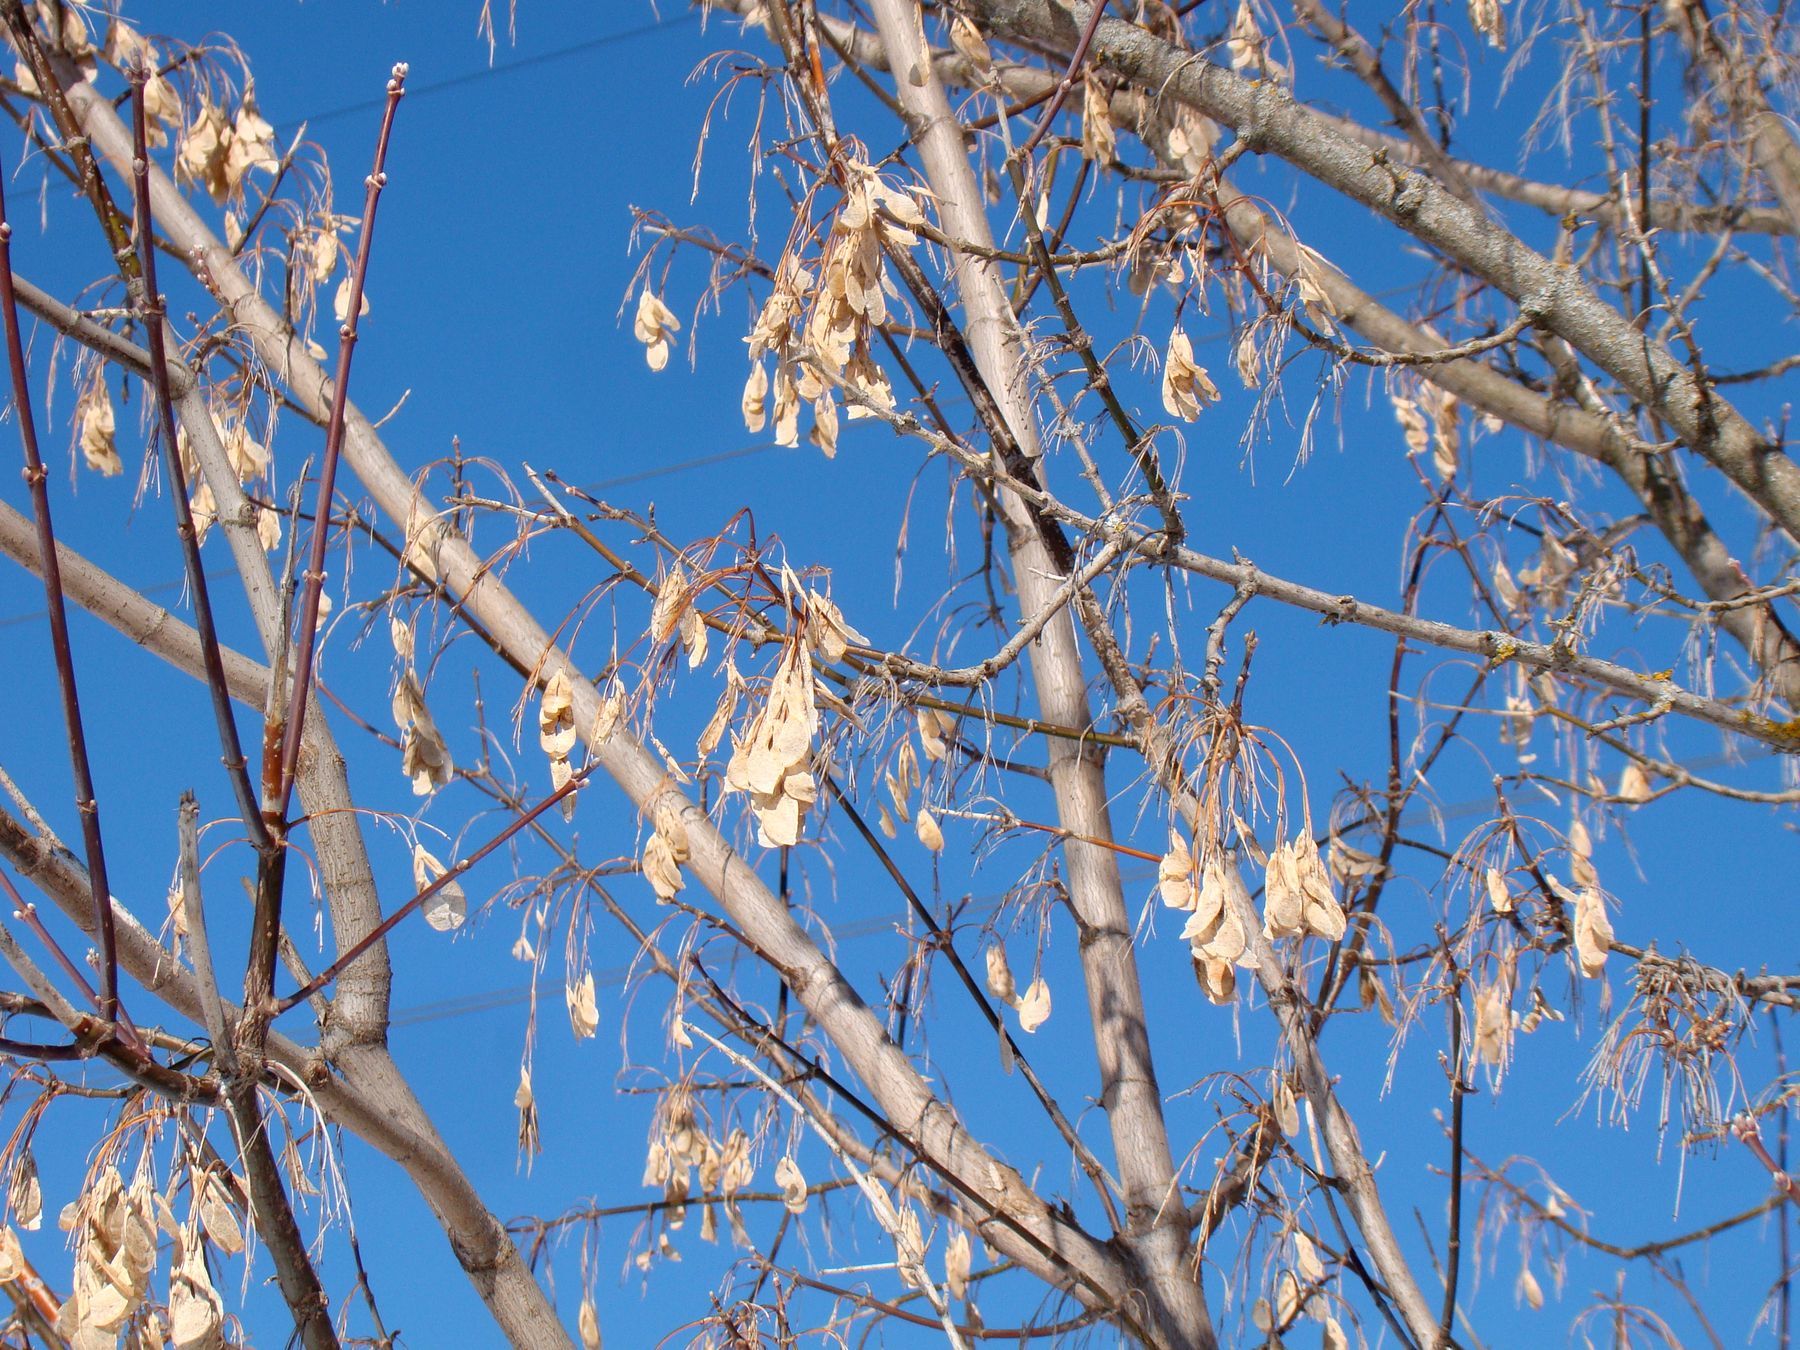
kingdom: Plantae
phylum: Tracheophyta
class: Magnoliopsida
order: Sapindales
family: Sapindaceae
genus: Acer
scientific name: Acer negundo
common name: Ashleaf maple
